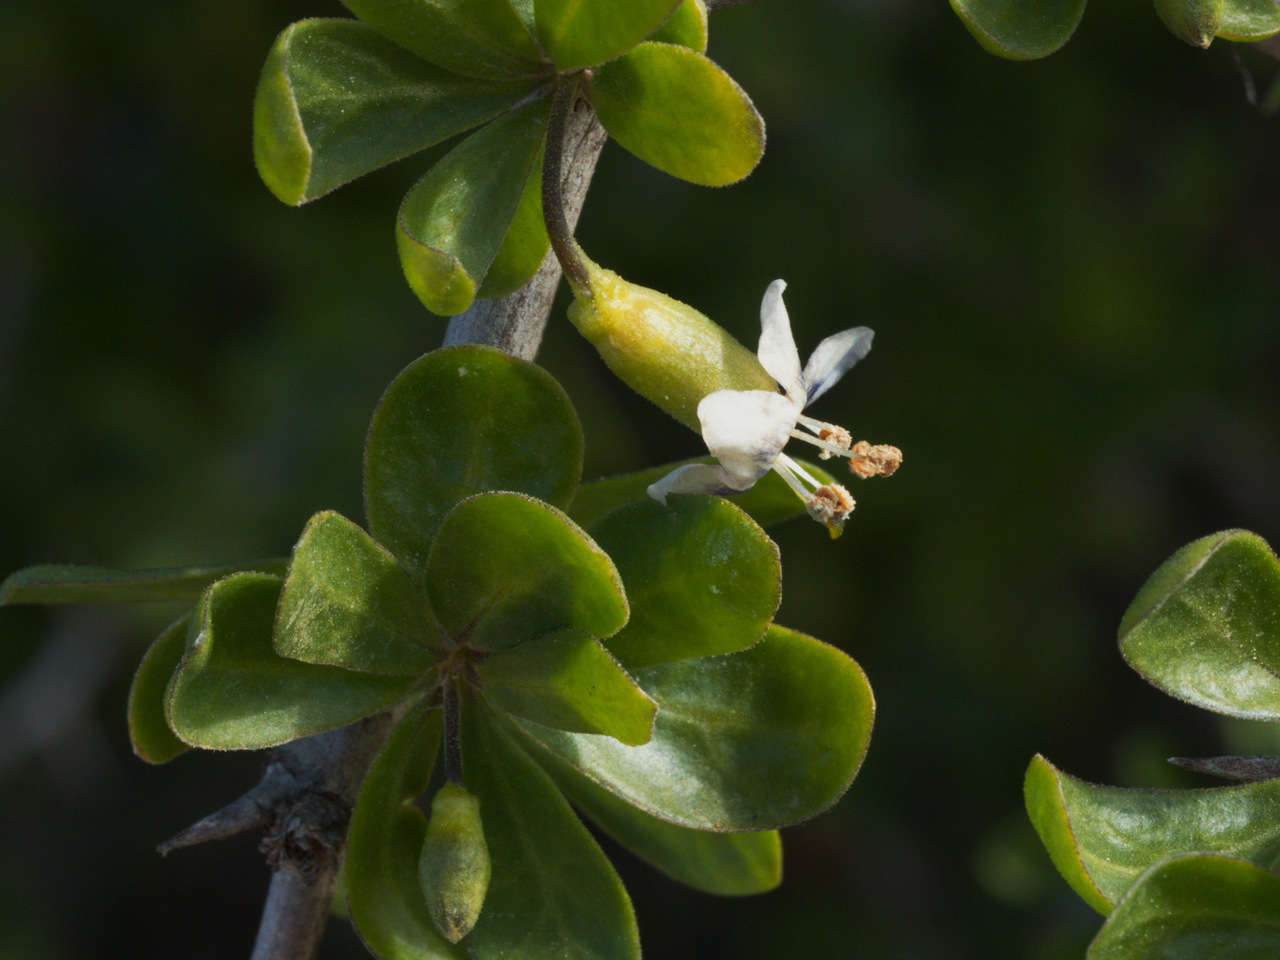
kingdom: Plantae
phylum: Tracheophyta
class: Magnoliopsida
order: Solanales
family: Solanaceae
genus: Lycium
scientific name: Lycium ferocissimum
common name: African boxthorn
